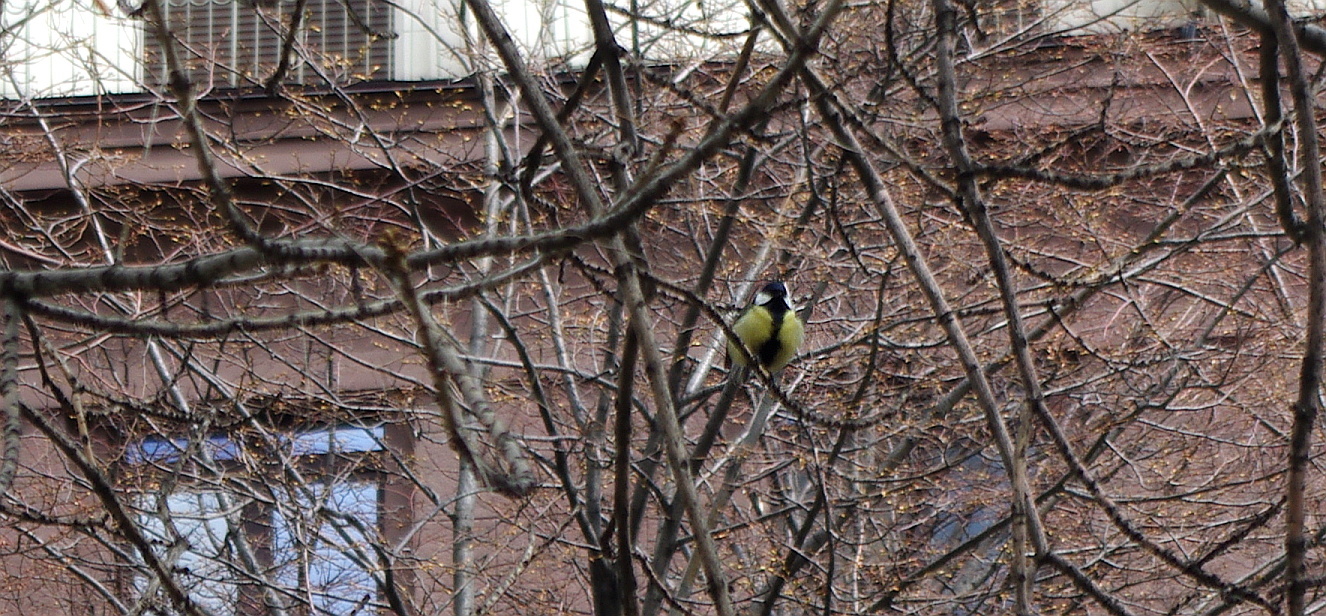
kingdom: Animalia
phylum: Chordata
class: Aves
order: Passeriformes
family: Paridae
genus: Parus
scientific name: Parus major
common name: Great tit
